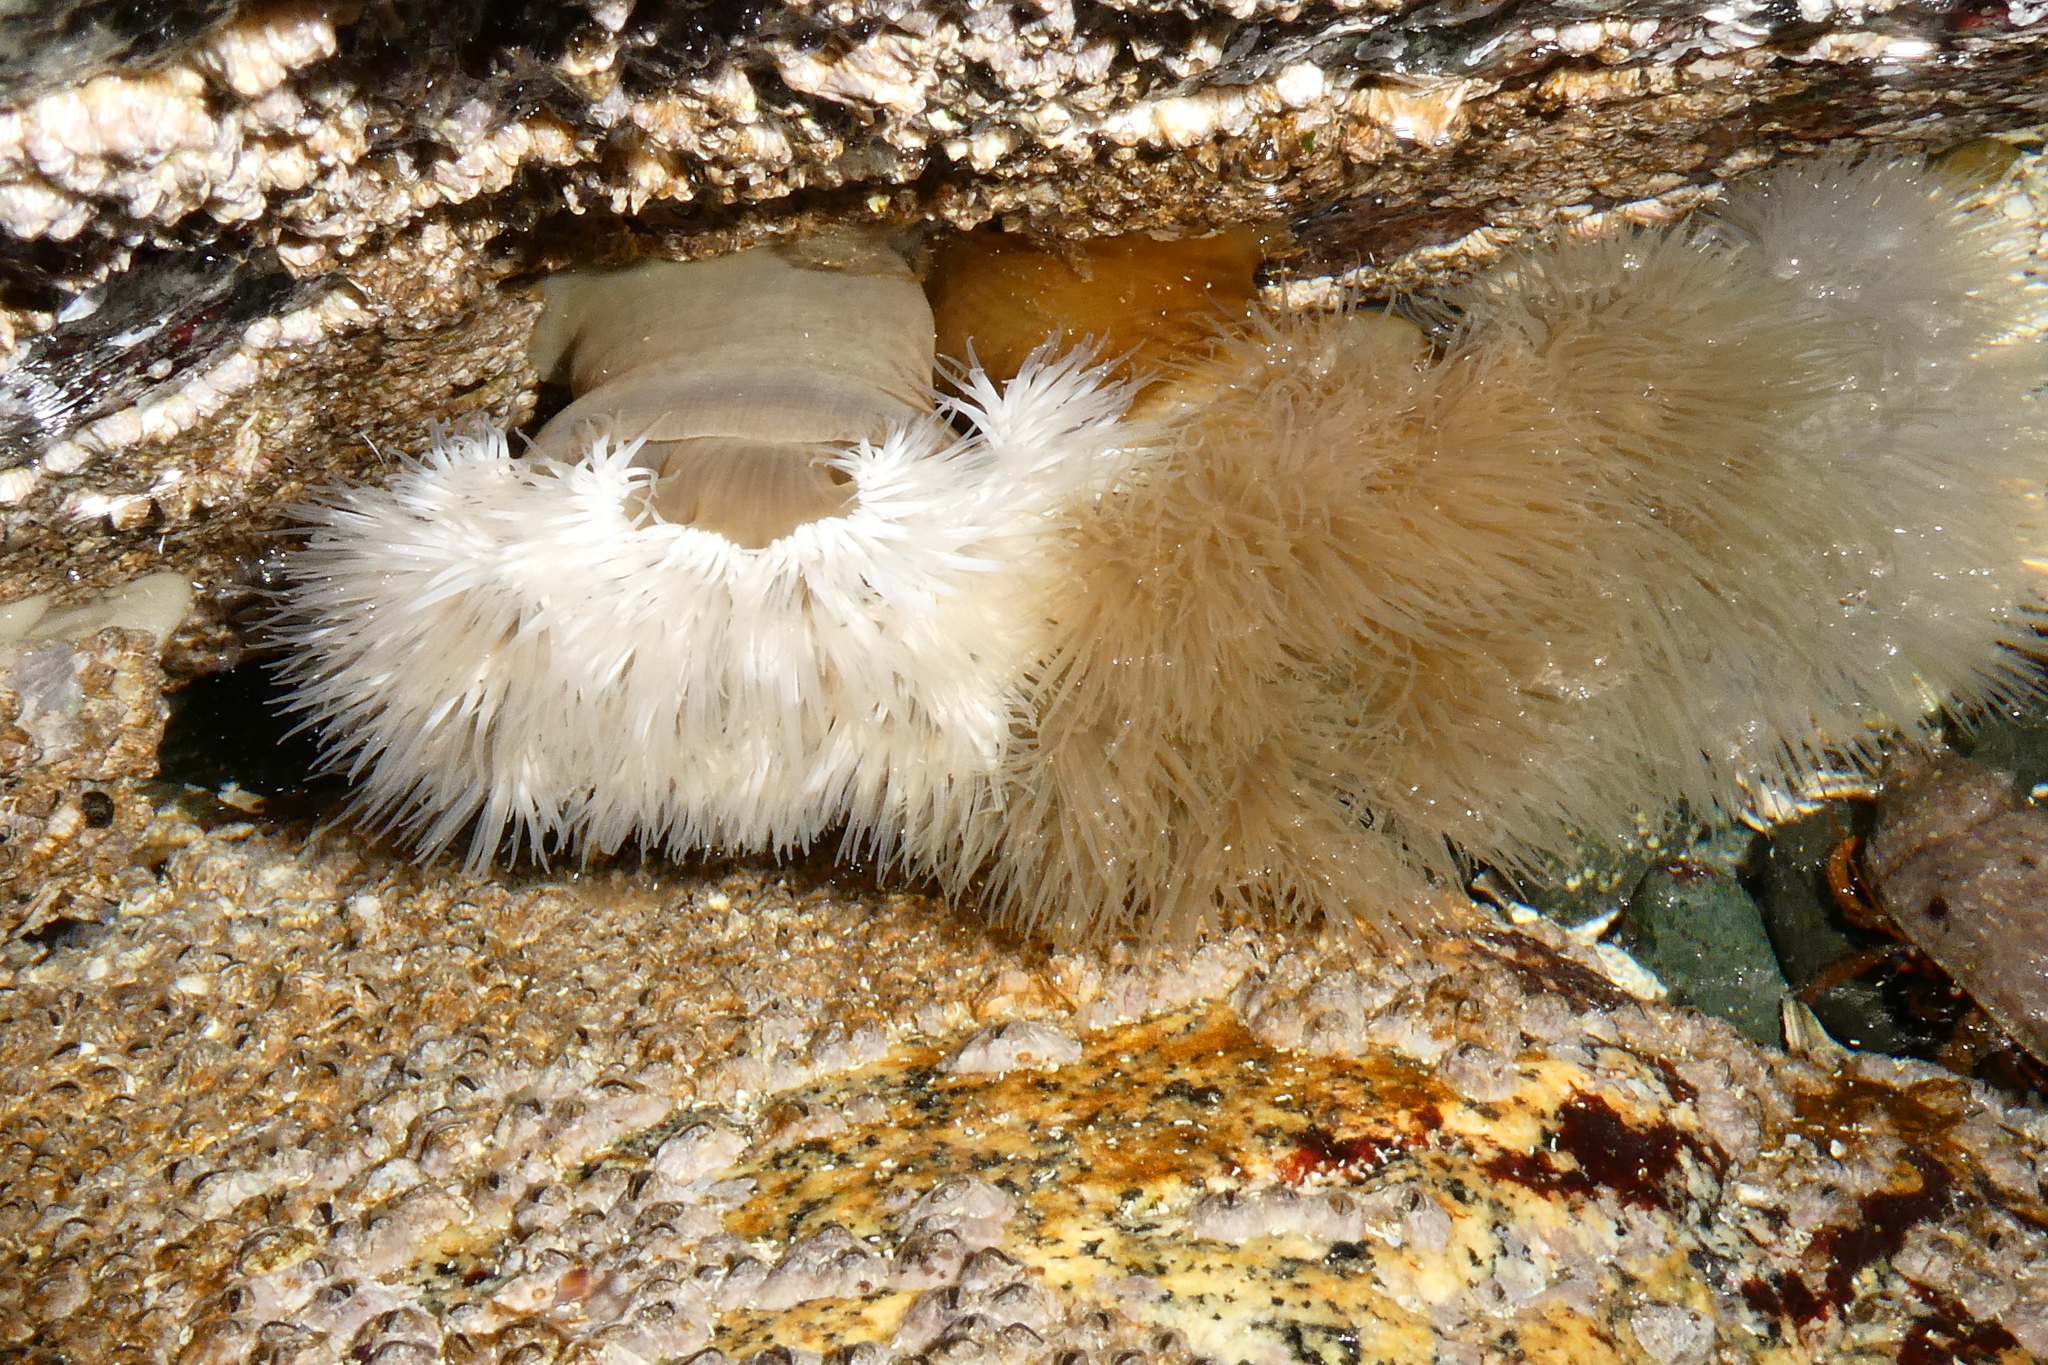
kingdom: Animalia
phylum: Cnidaria
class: Anthozoa
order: Actiniaria
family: Metridiidae
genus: Metridium
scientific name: Metridium senile
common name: Clonal plumose anemone
